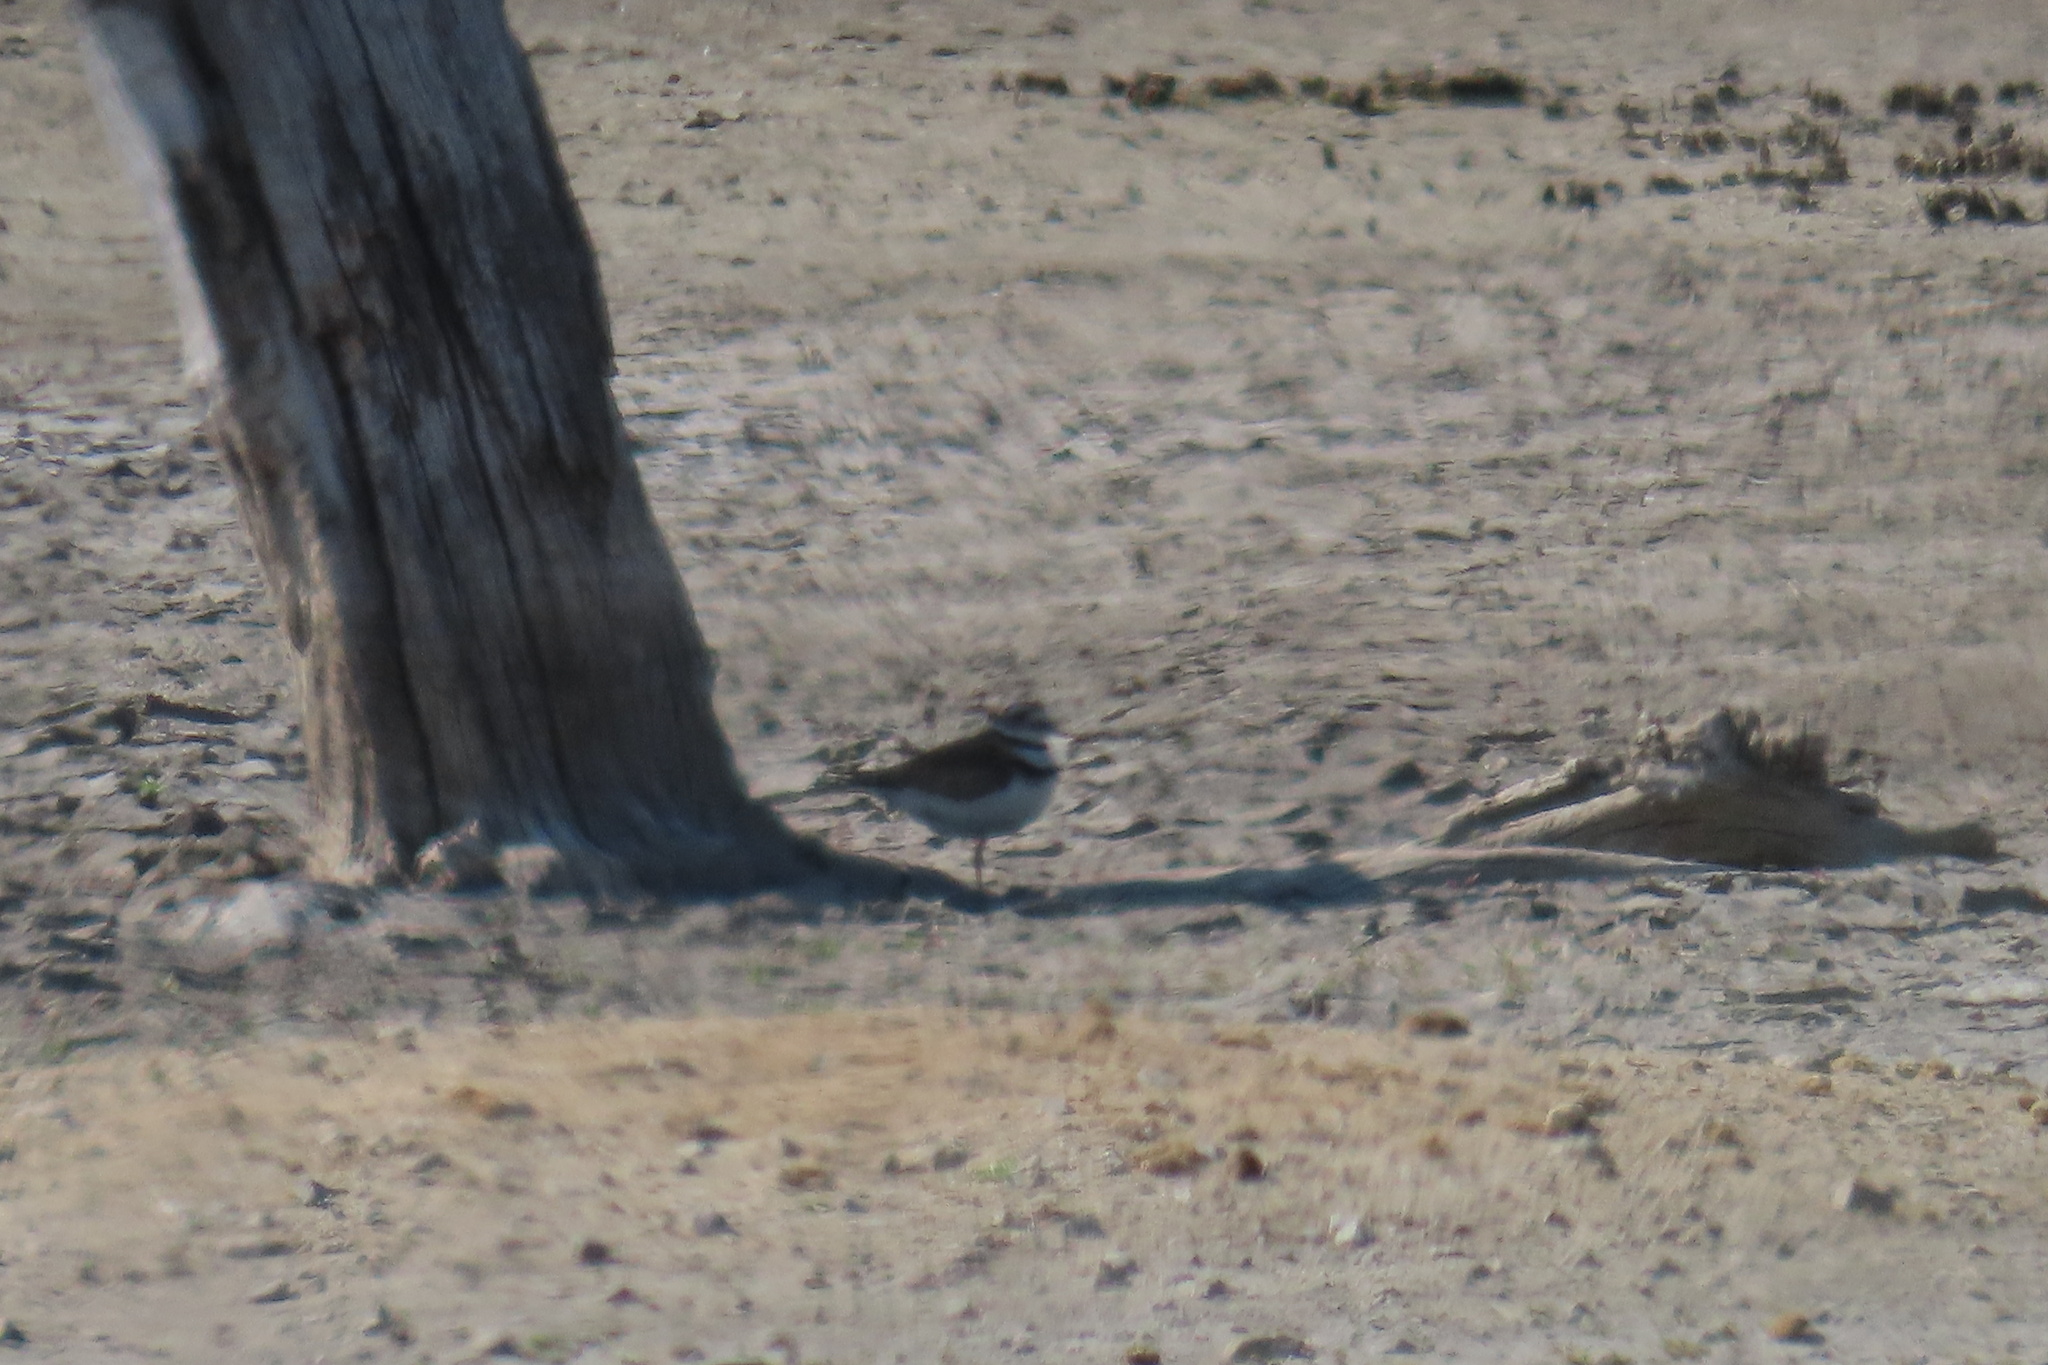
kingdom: Animalia
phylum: Chordata
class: Aves
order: Charadriiformes
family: Charadriidae
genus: Charadrius
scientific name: Charadrius vociferus
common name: Killdeer
